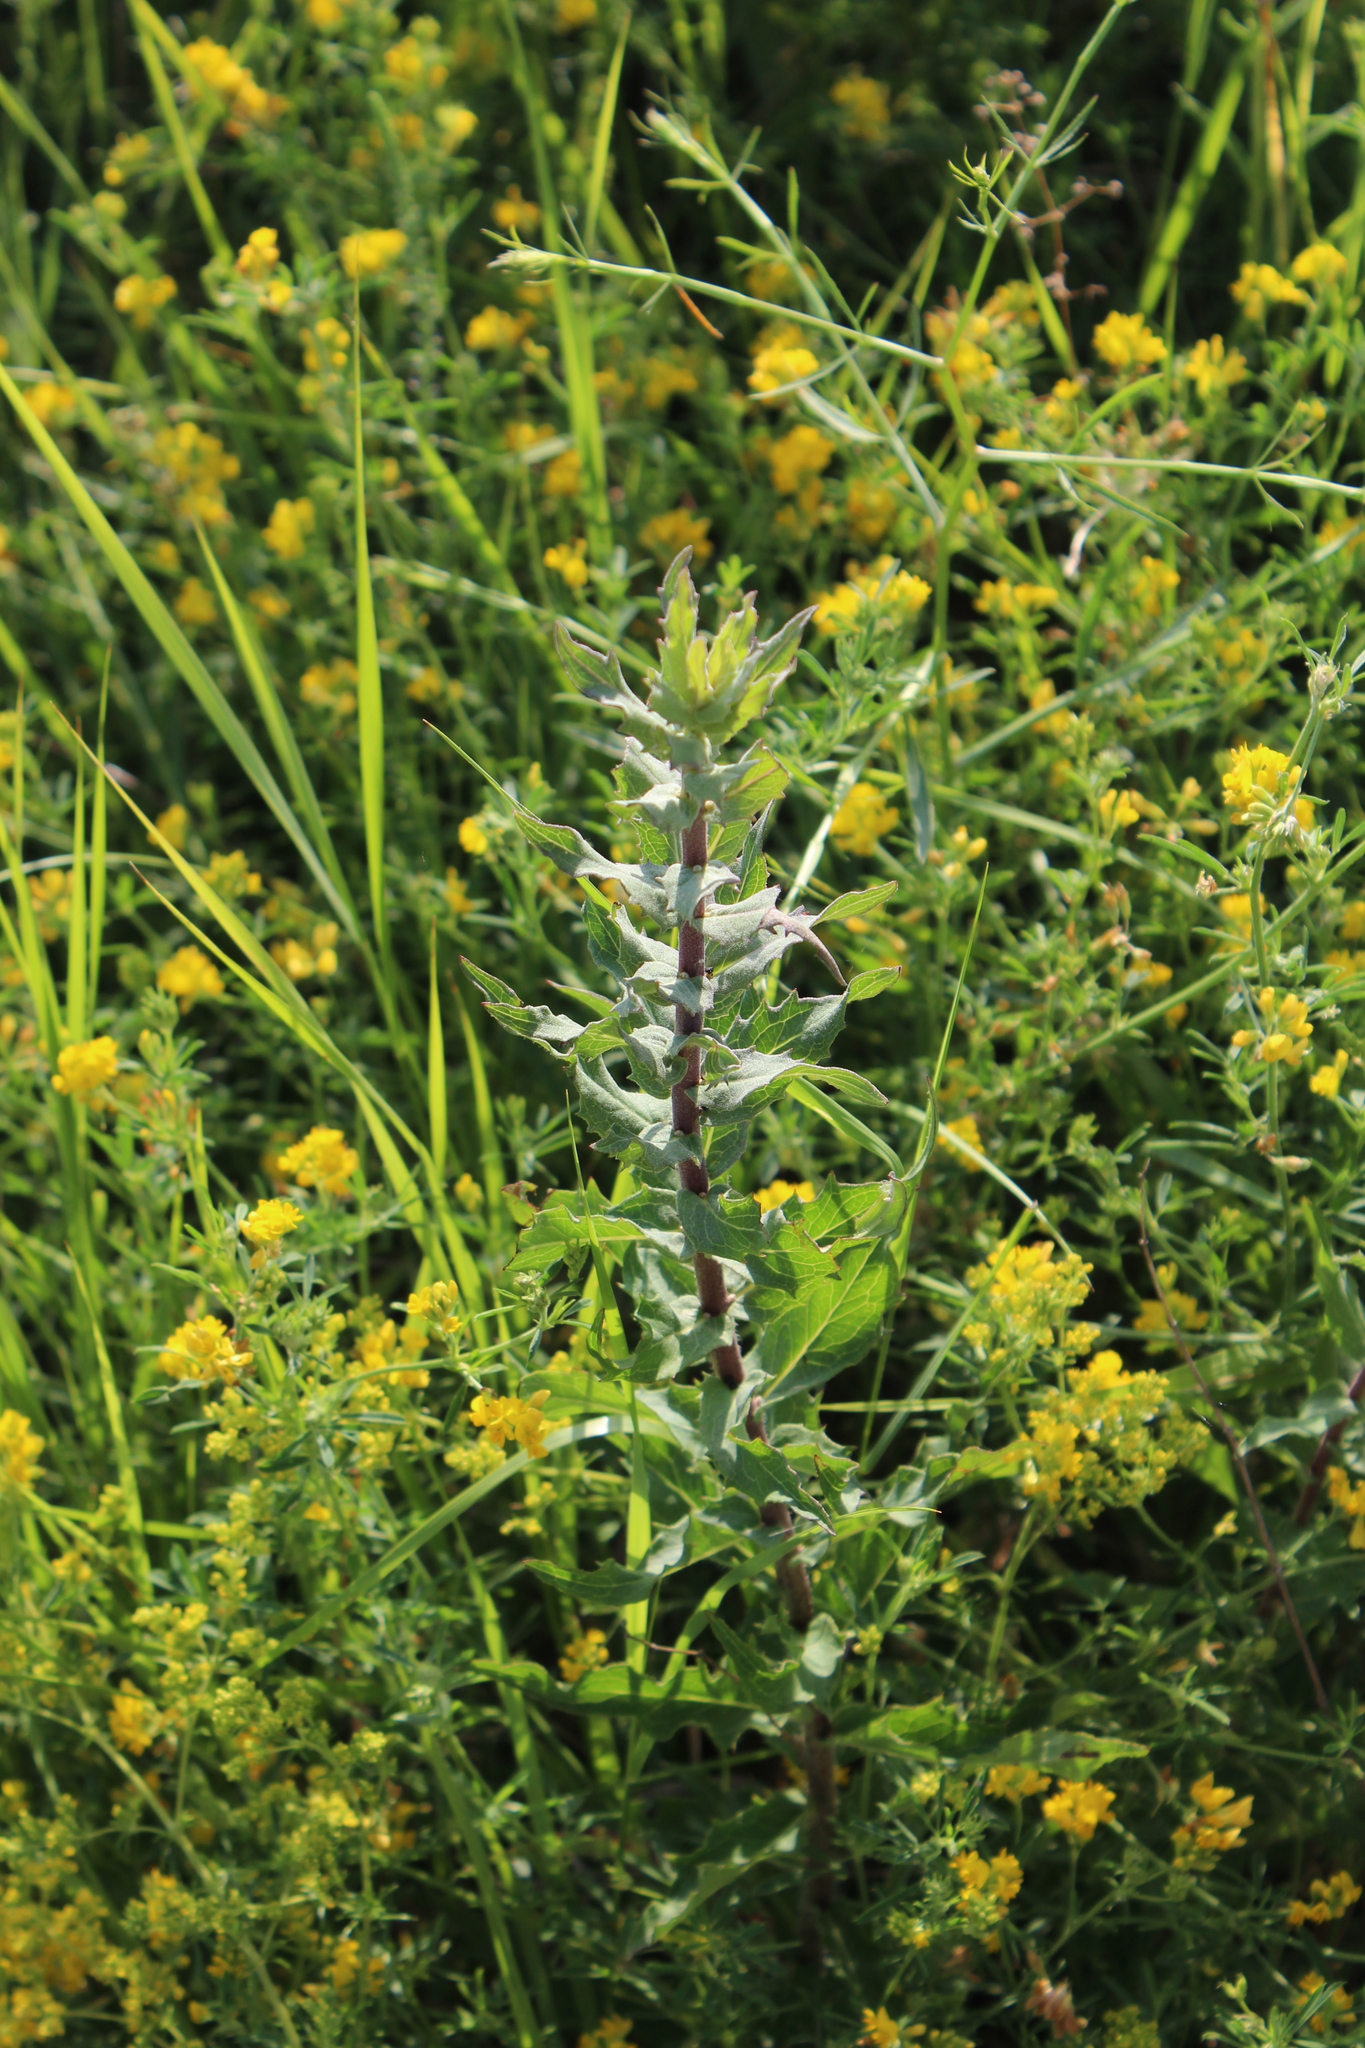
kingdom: Plantae
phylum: Tracheophyta
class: Magnoliopsida
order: Asterales
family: Asteraceae
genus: Hieracium
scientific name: Hieracium robustum
